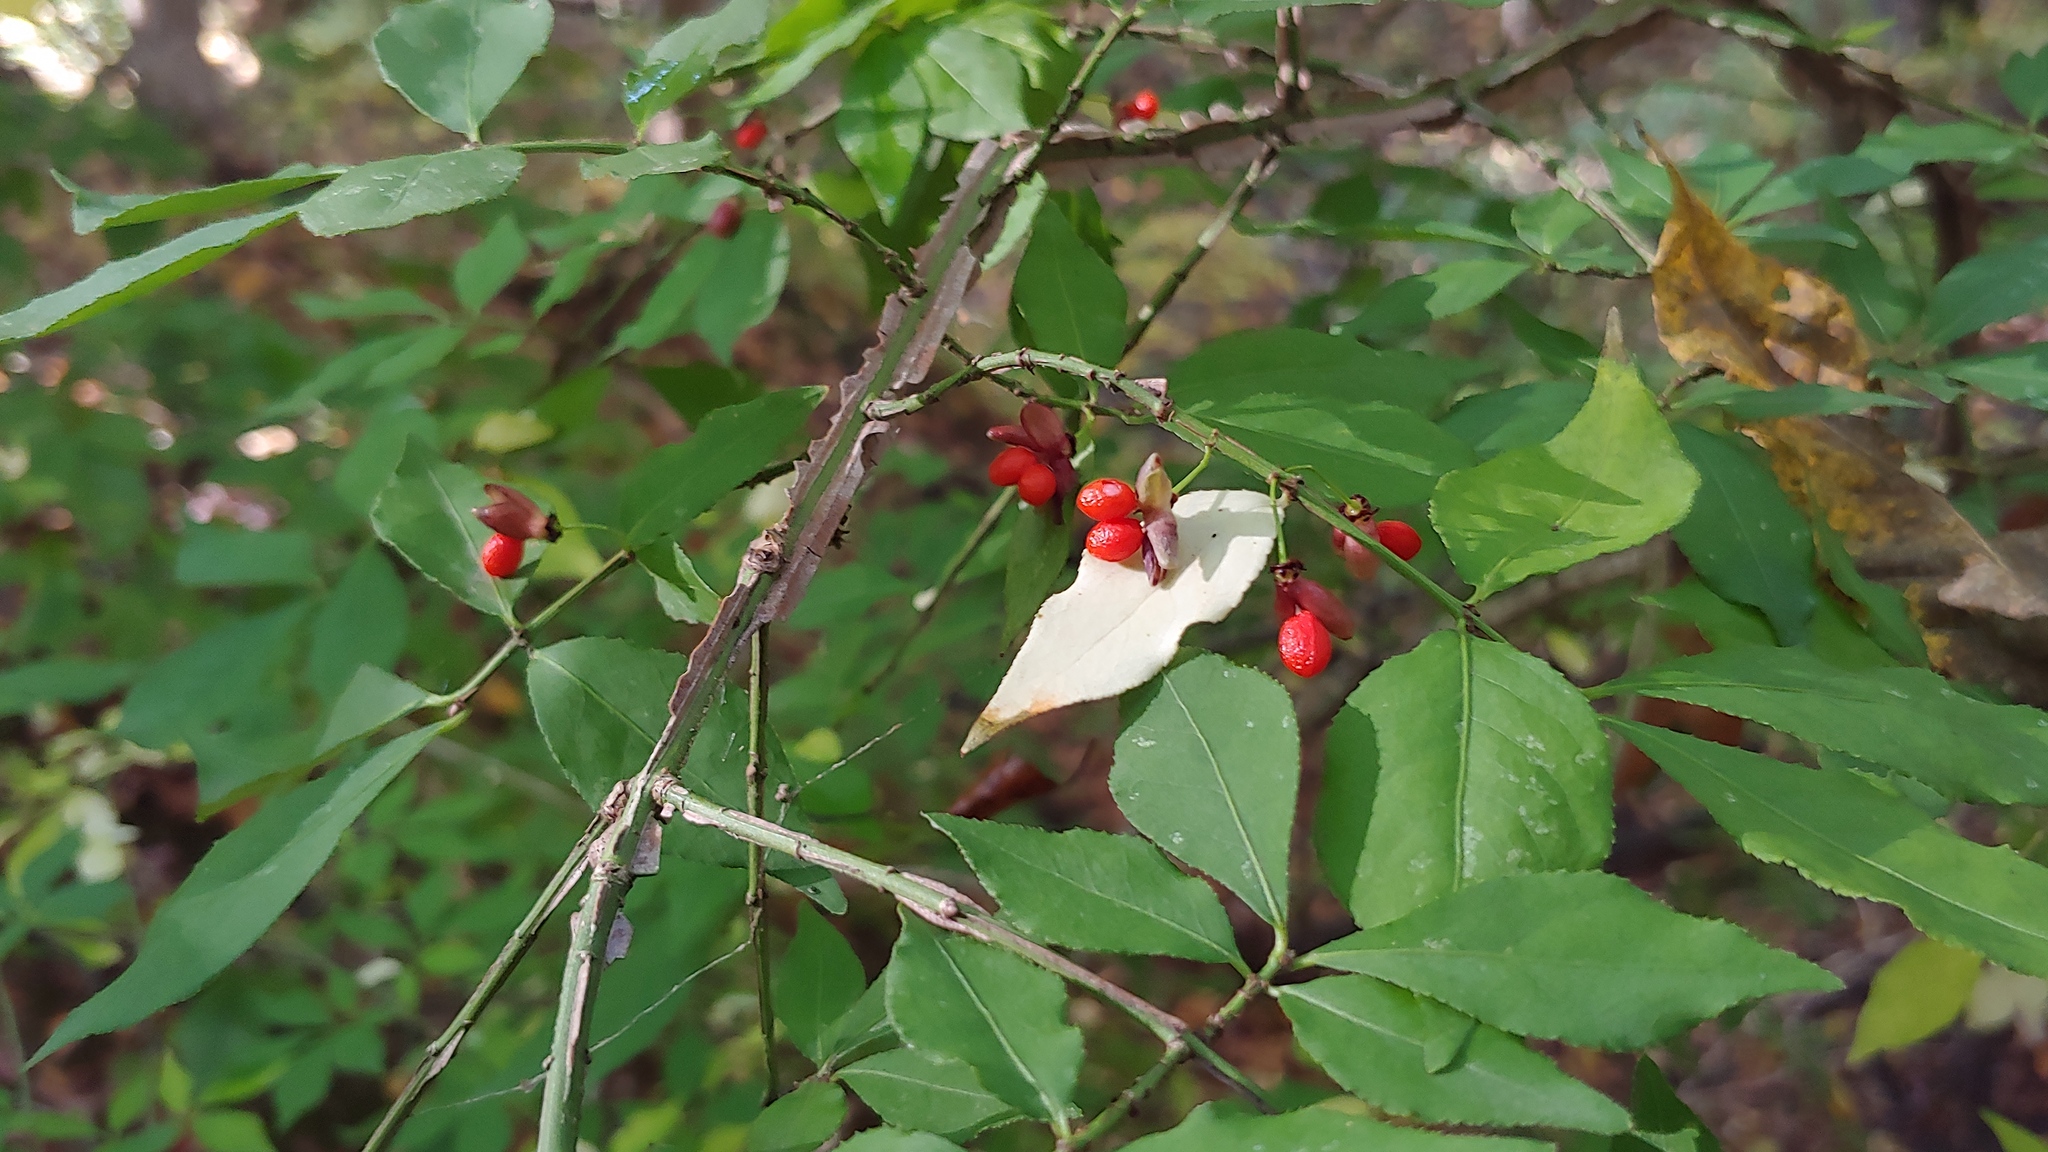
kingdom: Plantae
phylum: Tracheophyta
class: Magnoliopsida
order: Celastrales
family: Celastraceae
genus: Euonymus
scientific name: Euonymus alatus
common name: Winged euonymus
